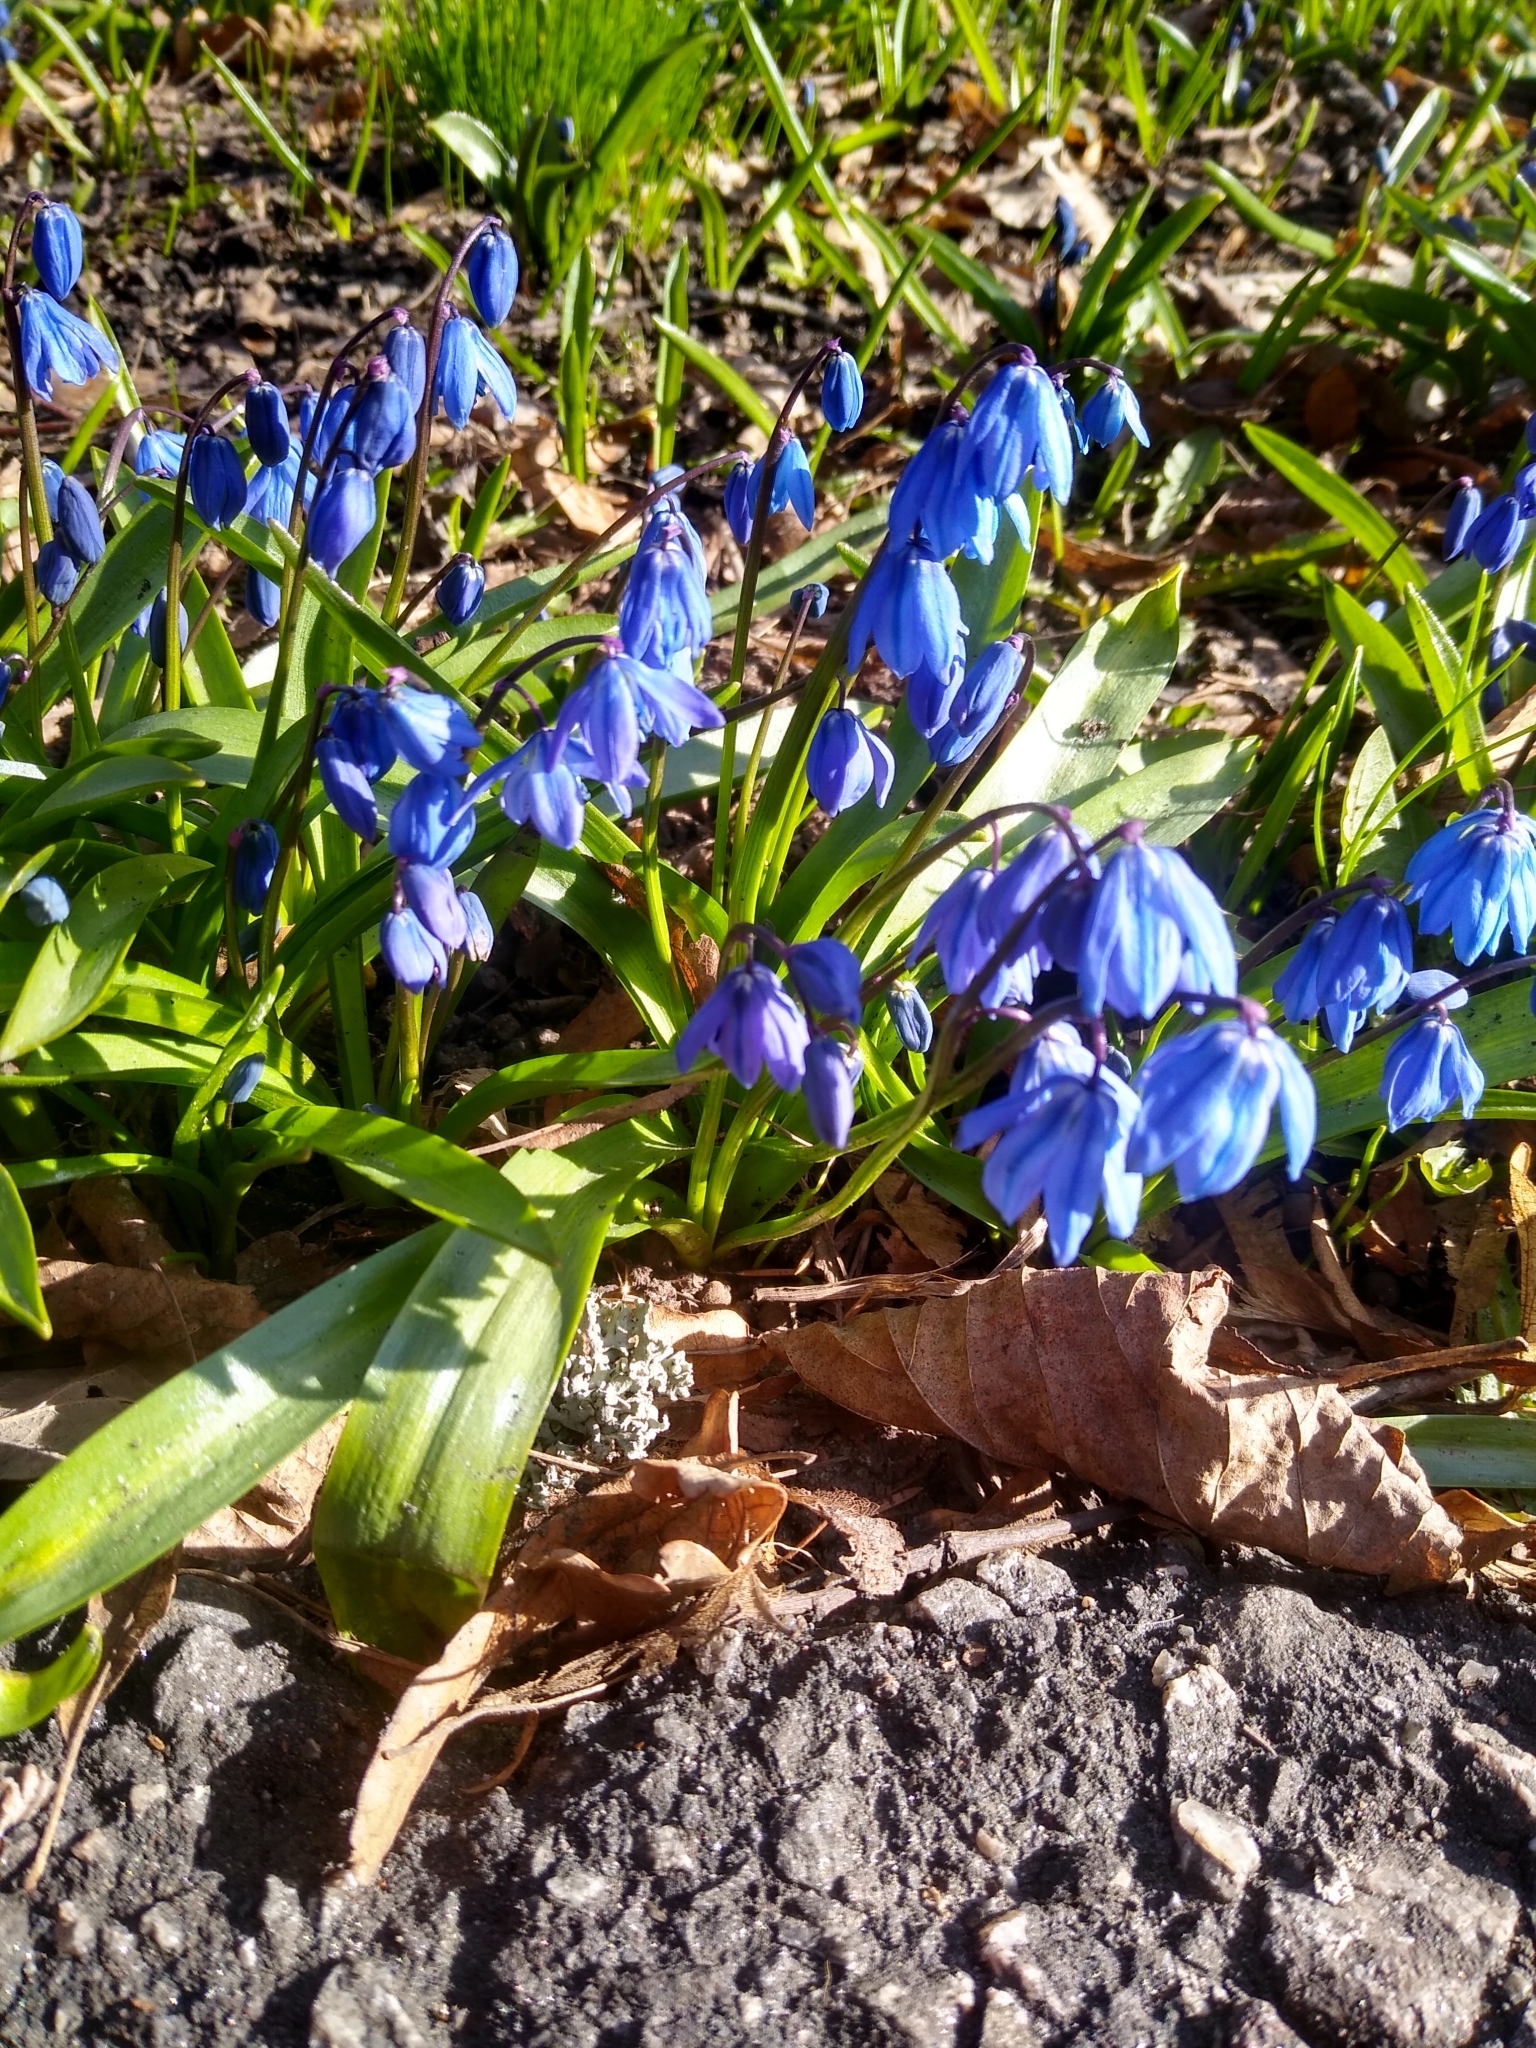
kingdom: Plantae
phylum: Tracheophyta
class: Liliopsida
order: Asparagales
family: Asparagaceae
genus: Scilla
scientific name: Scilla siberica
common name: Siberian squill
